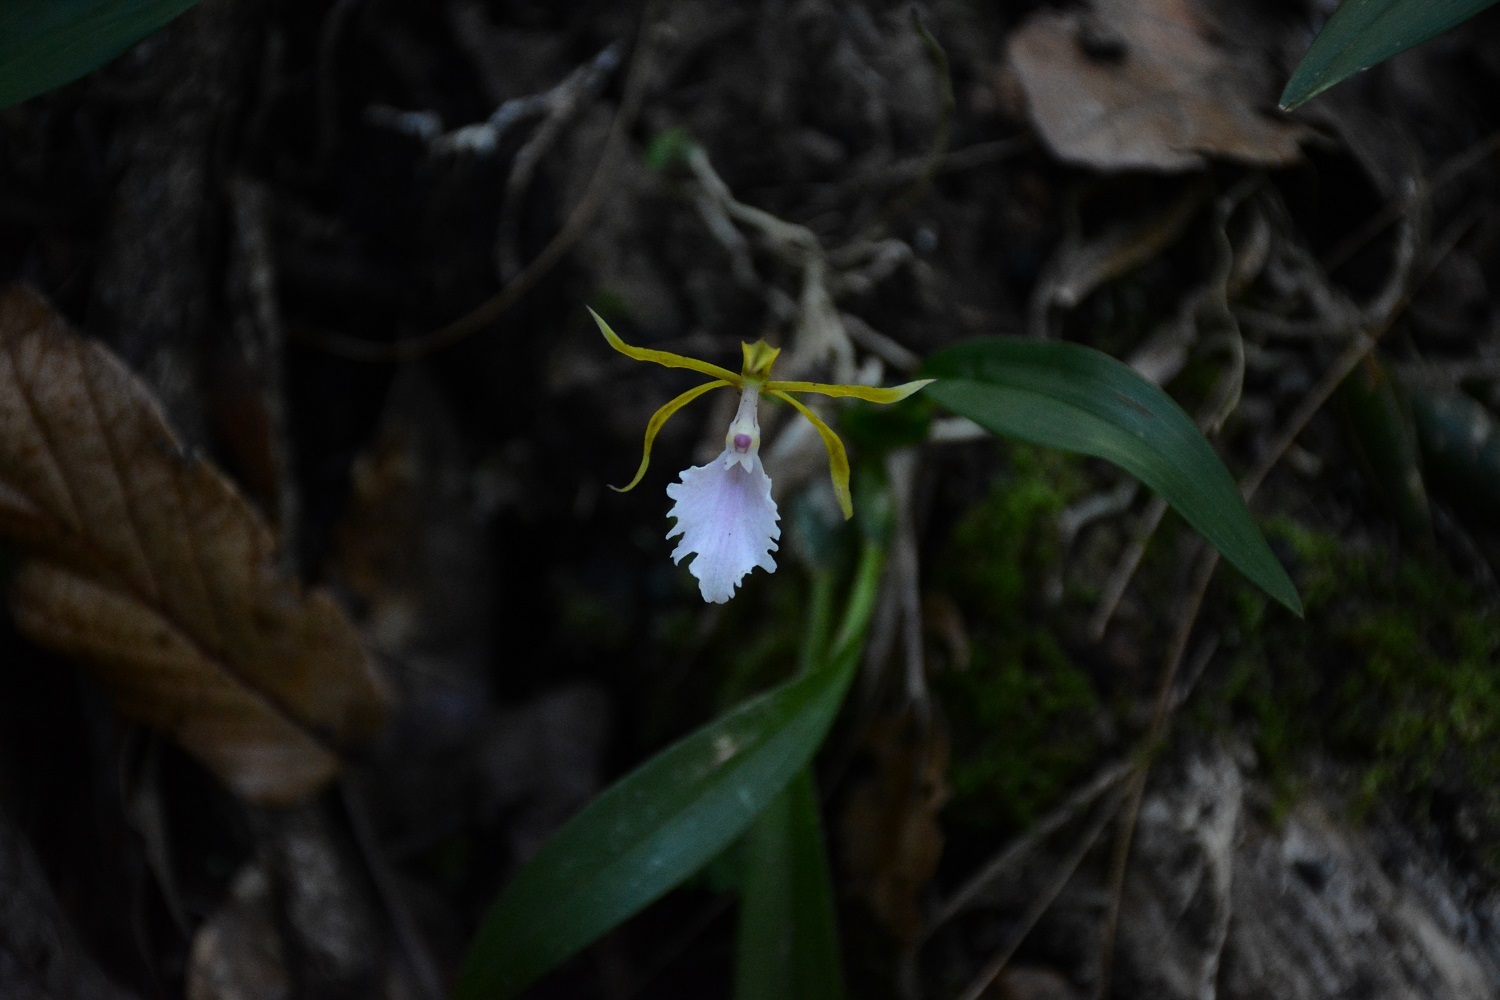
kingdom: Plantae
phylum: Tracheophyta
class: Liliopsida
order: Asparagales
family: Orchidaceae
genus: Rhynchostele
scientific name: Rhynchostele stellata
